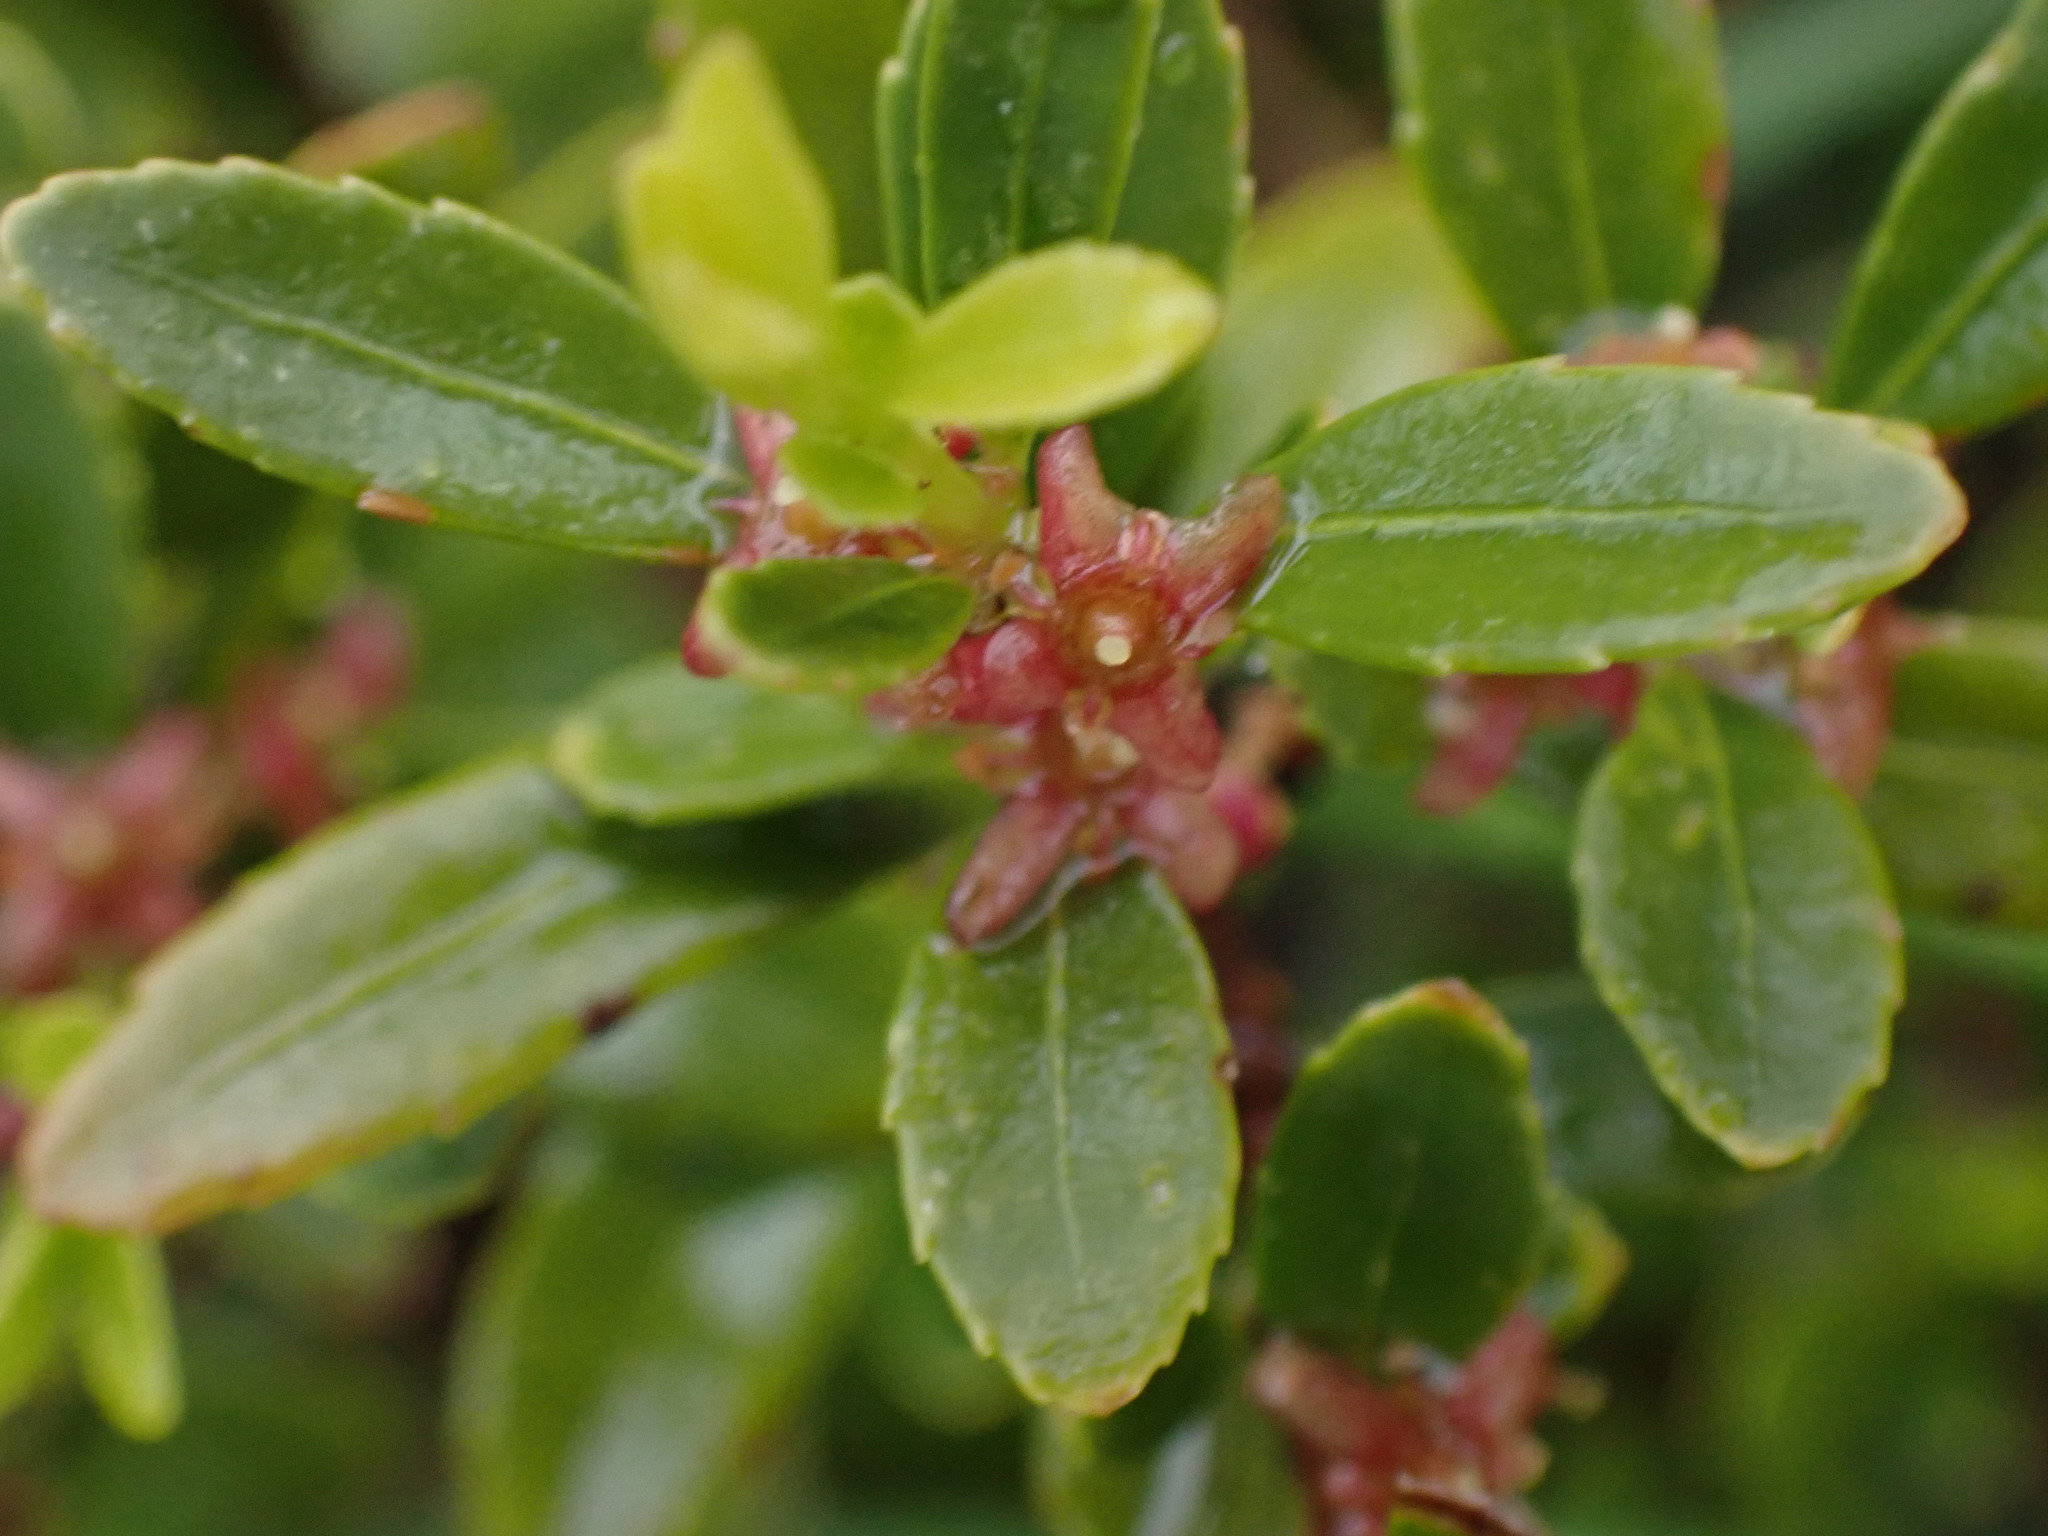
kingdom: Plantae
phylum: Tracheophyta
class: Magnoliopsida
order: Celastrales
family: Celastraceae
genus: Paxistima
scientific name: Paxistima myrsinites
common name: Mountain-lover
